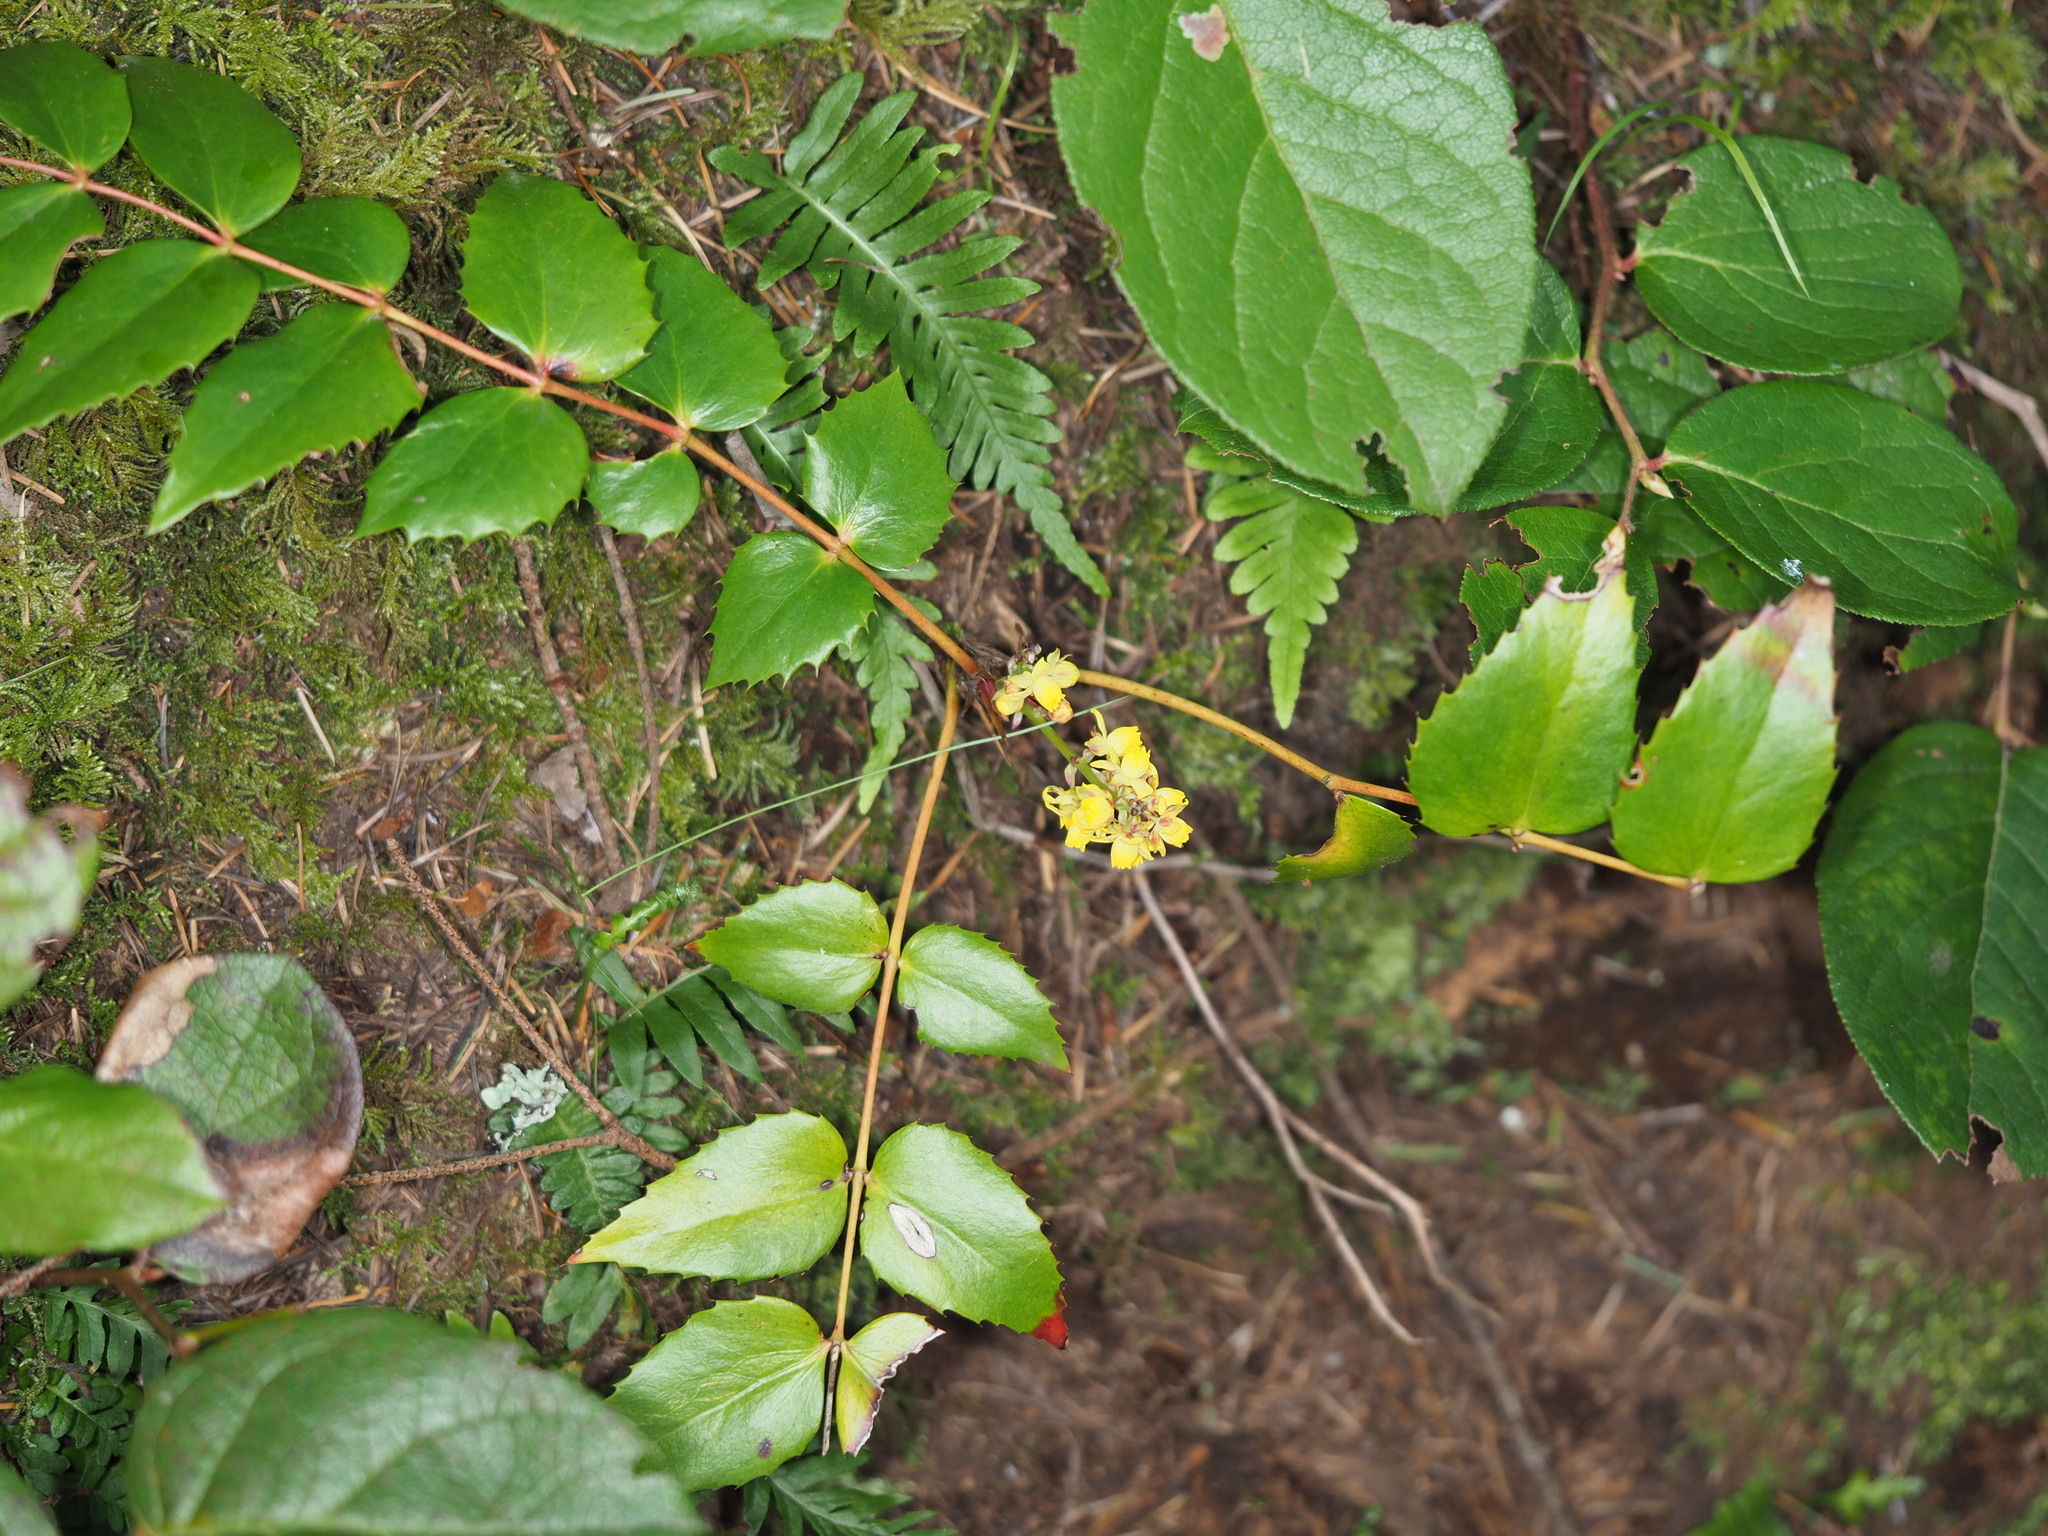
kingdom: Plantae
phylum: Tracheophyta
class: Magnoliopsida
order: Ranunculales
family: Berberidaceae
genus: Mahonia
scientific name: Mahonia nervosa
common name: Cascade oregon-grape
